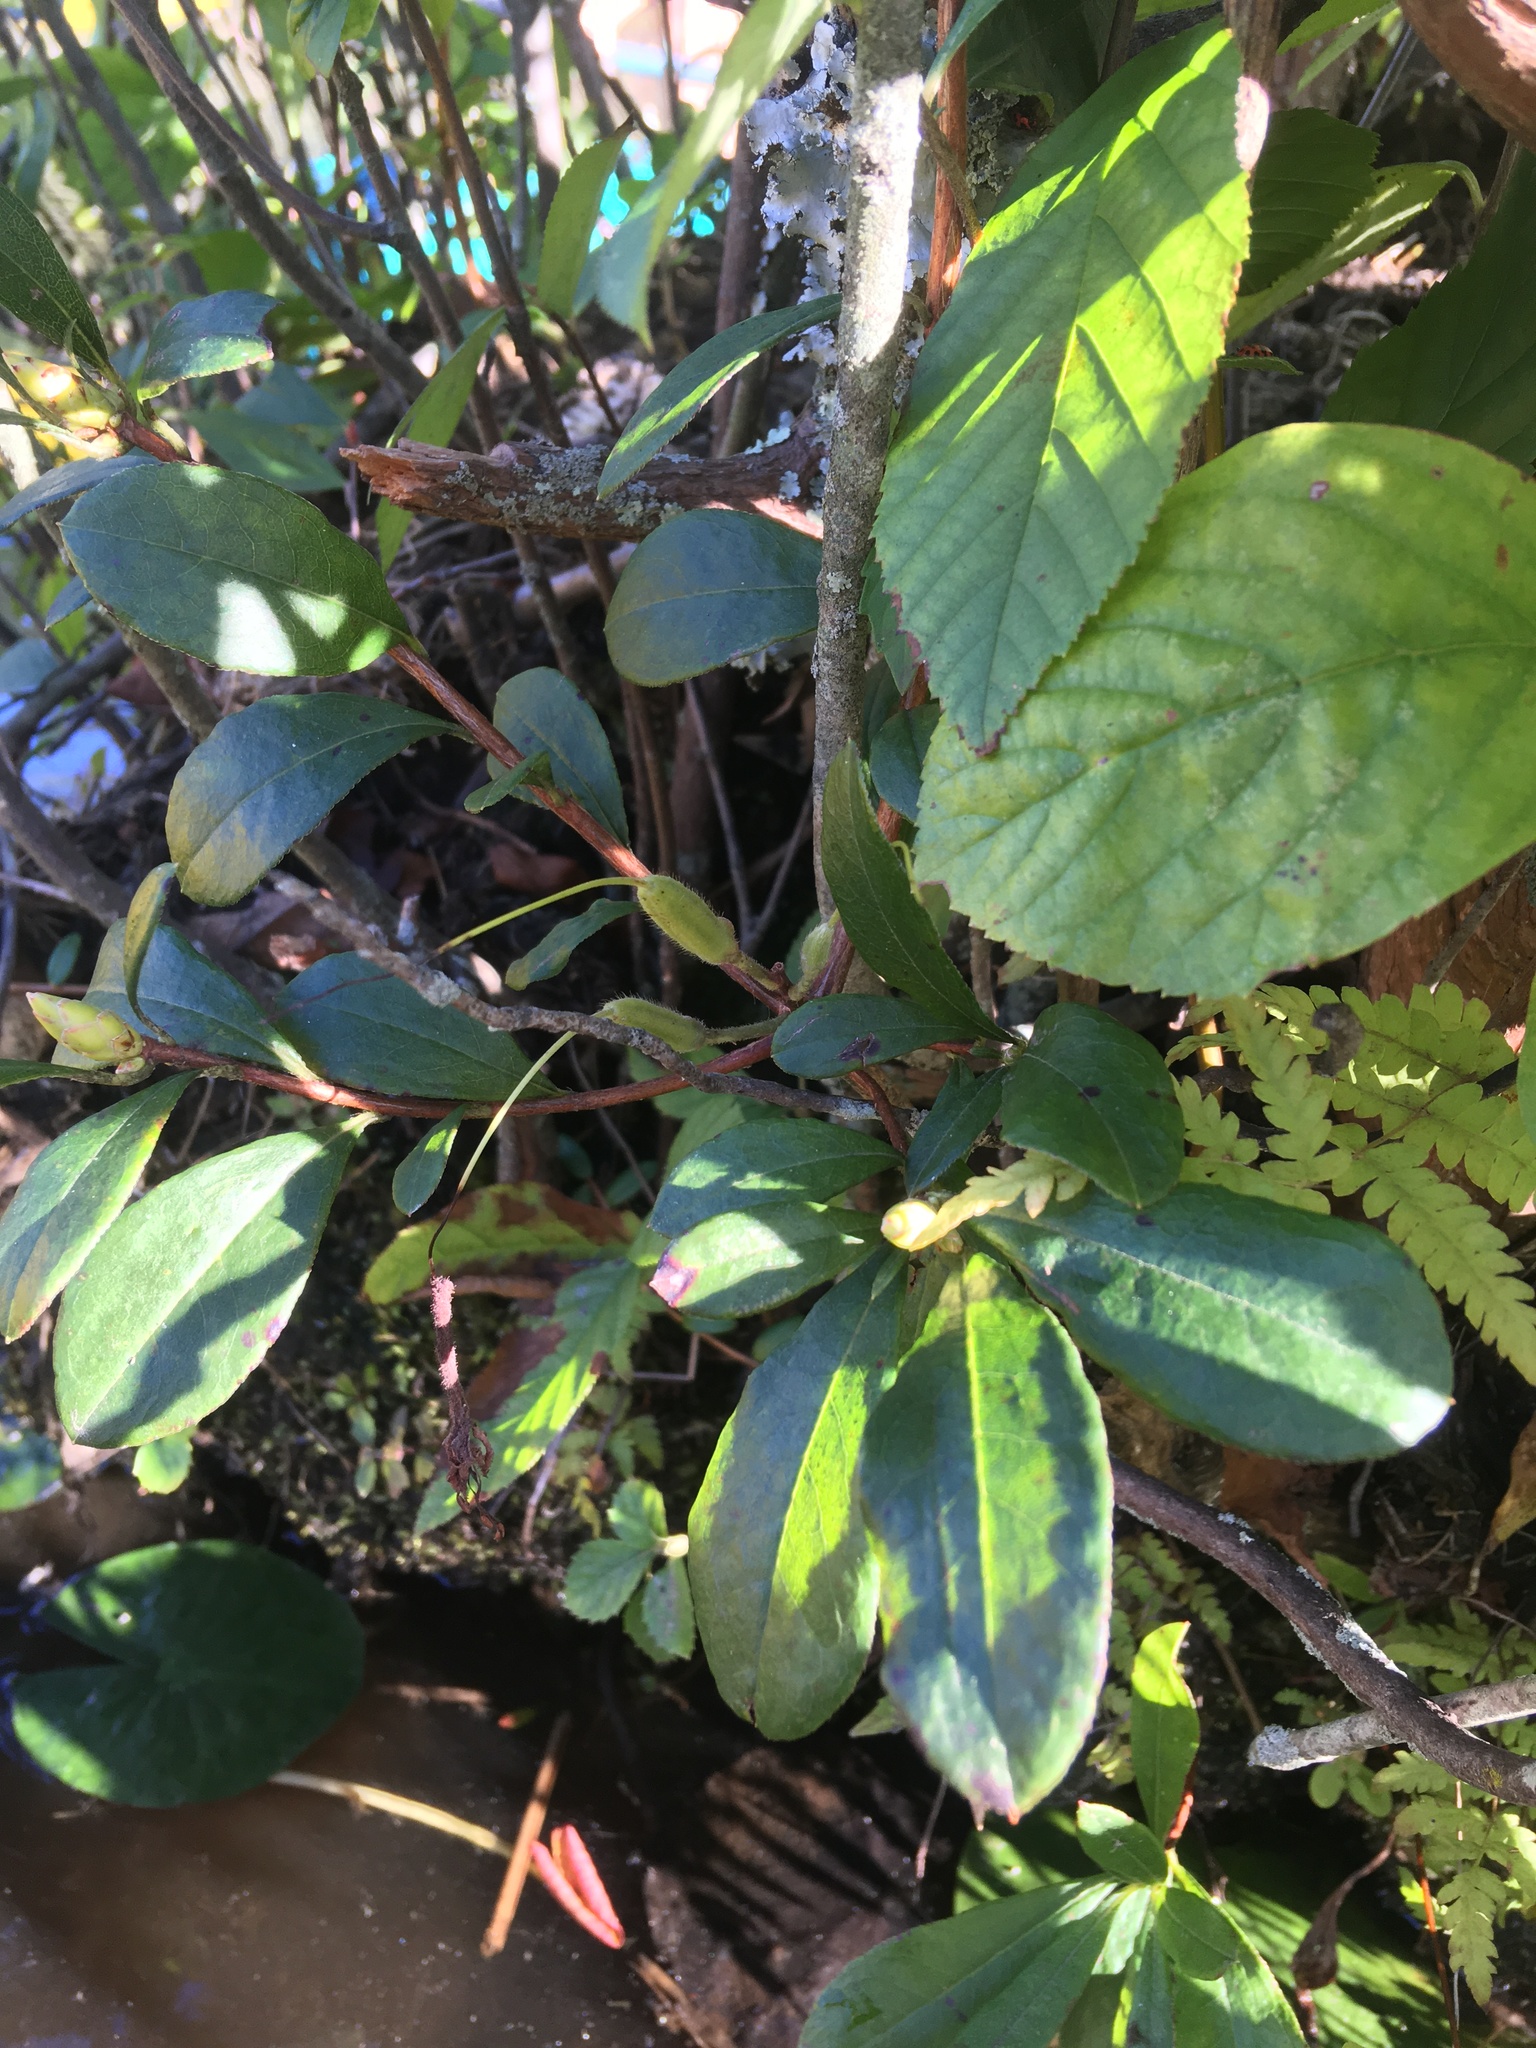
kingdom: Plantae
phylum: Tracheophyta
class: Magnoliopsida
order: Ericales
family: Ericaceae
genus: Rhododendron
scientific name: Rhododendron periclymenoides
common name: Election-pink
